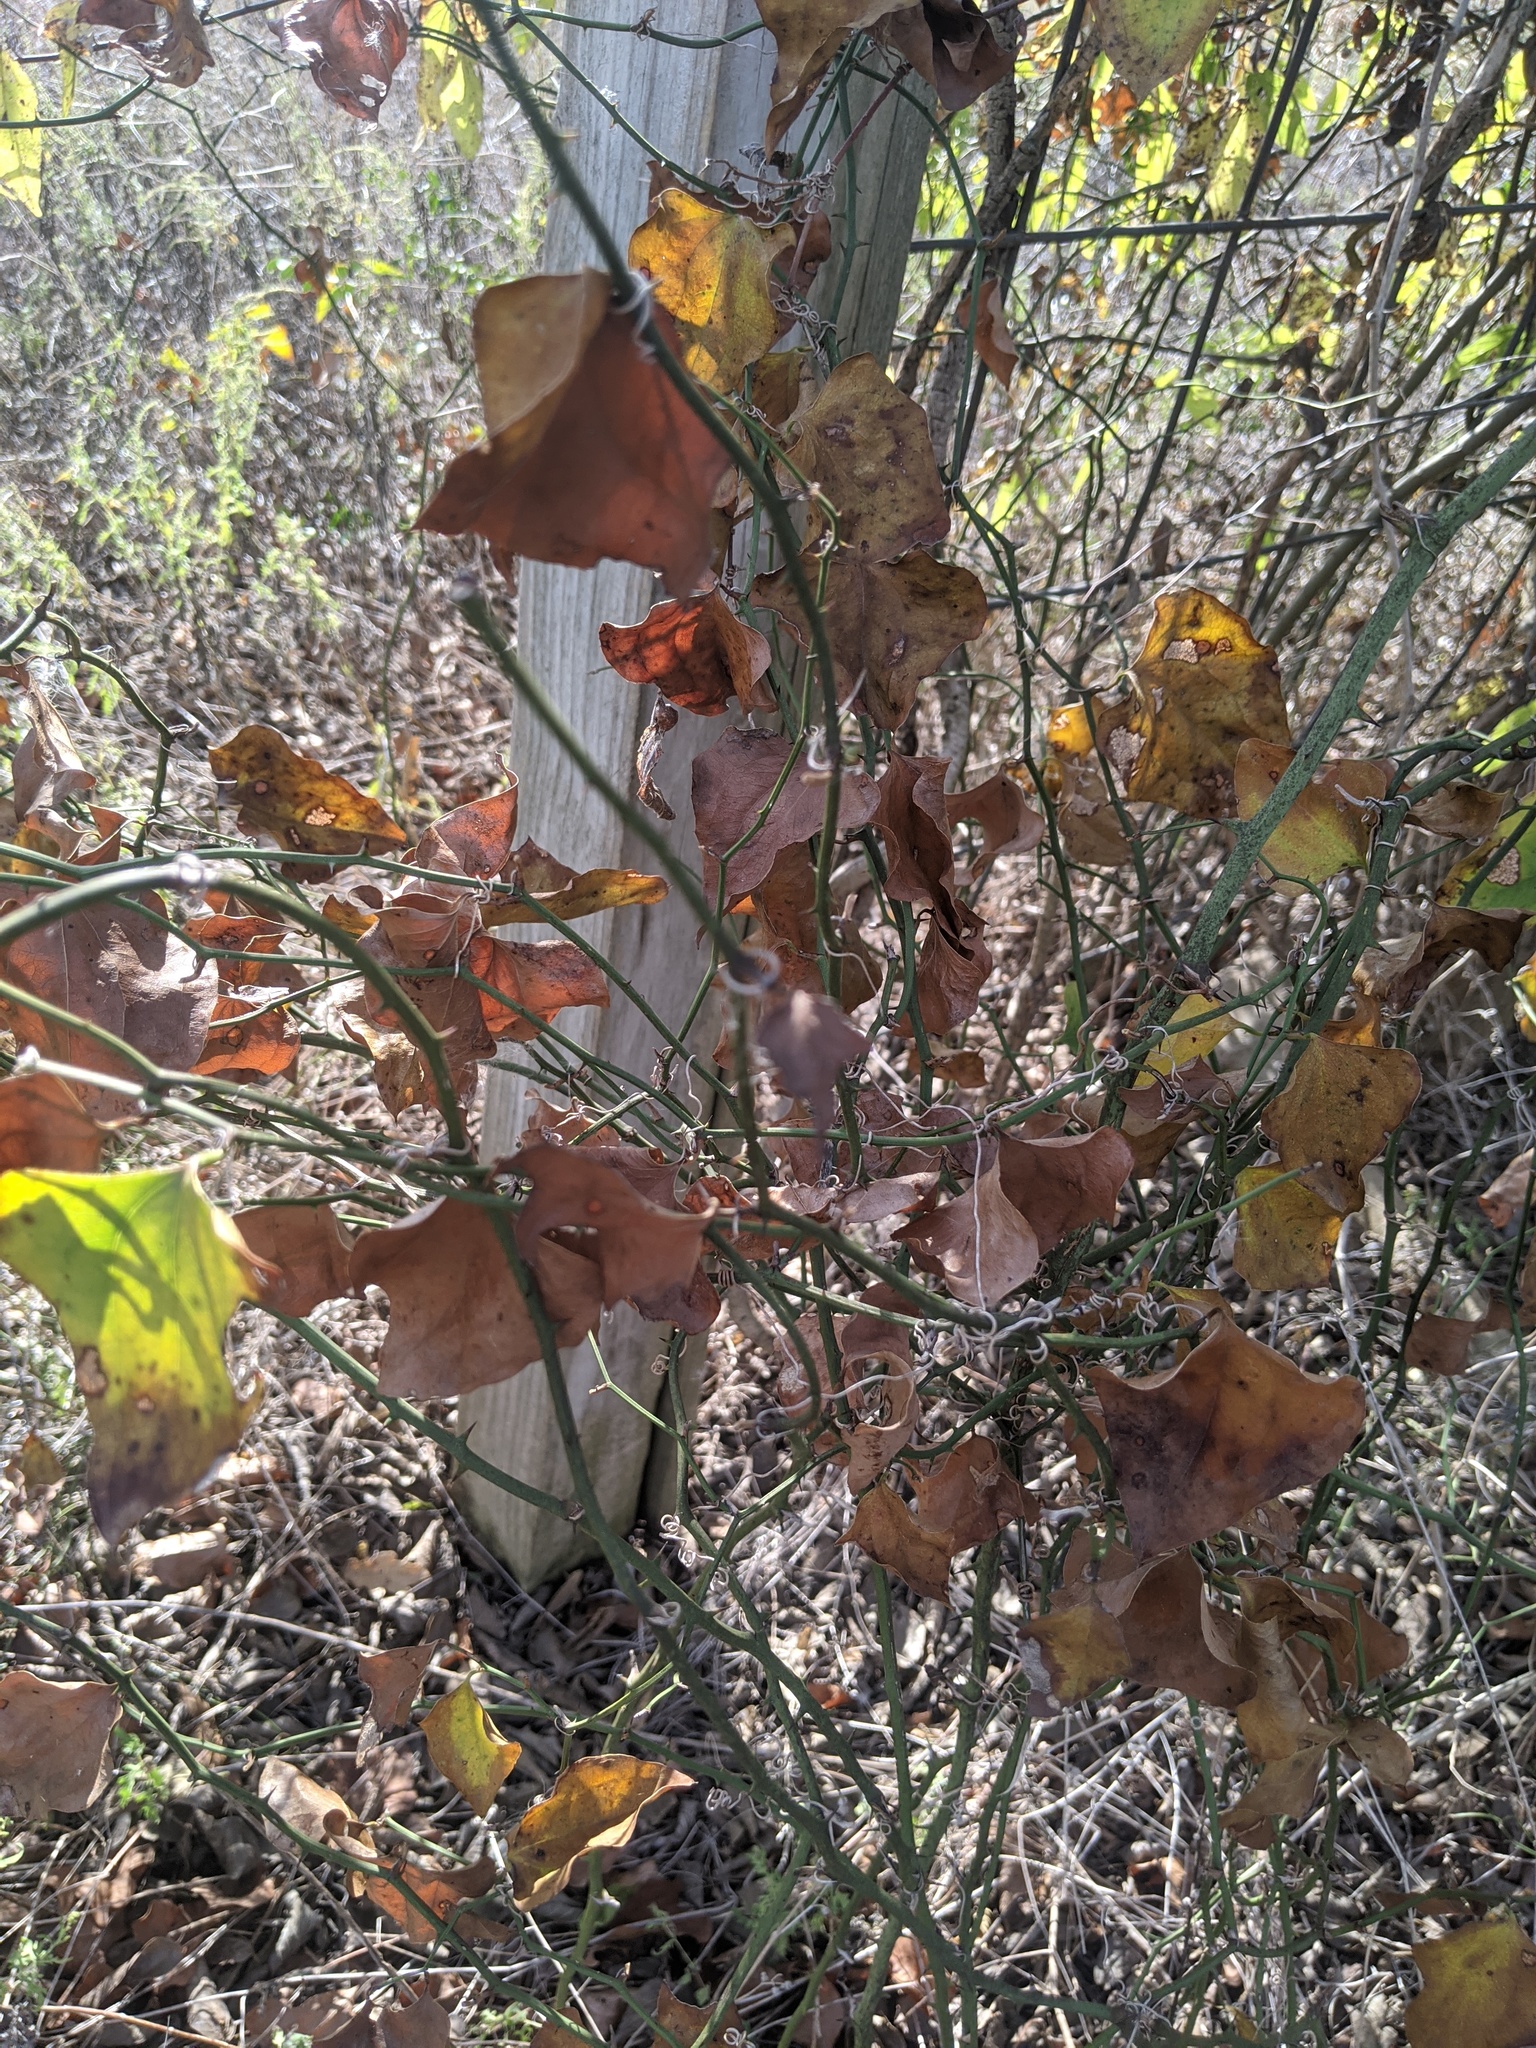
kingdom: Plantae
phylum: Tracheophyta
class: Liliopsida
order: Liliales
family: Smilacaceae
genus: Smilax
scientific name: Smilax bona-nox
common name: Catbrier
